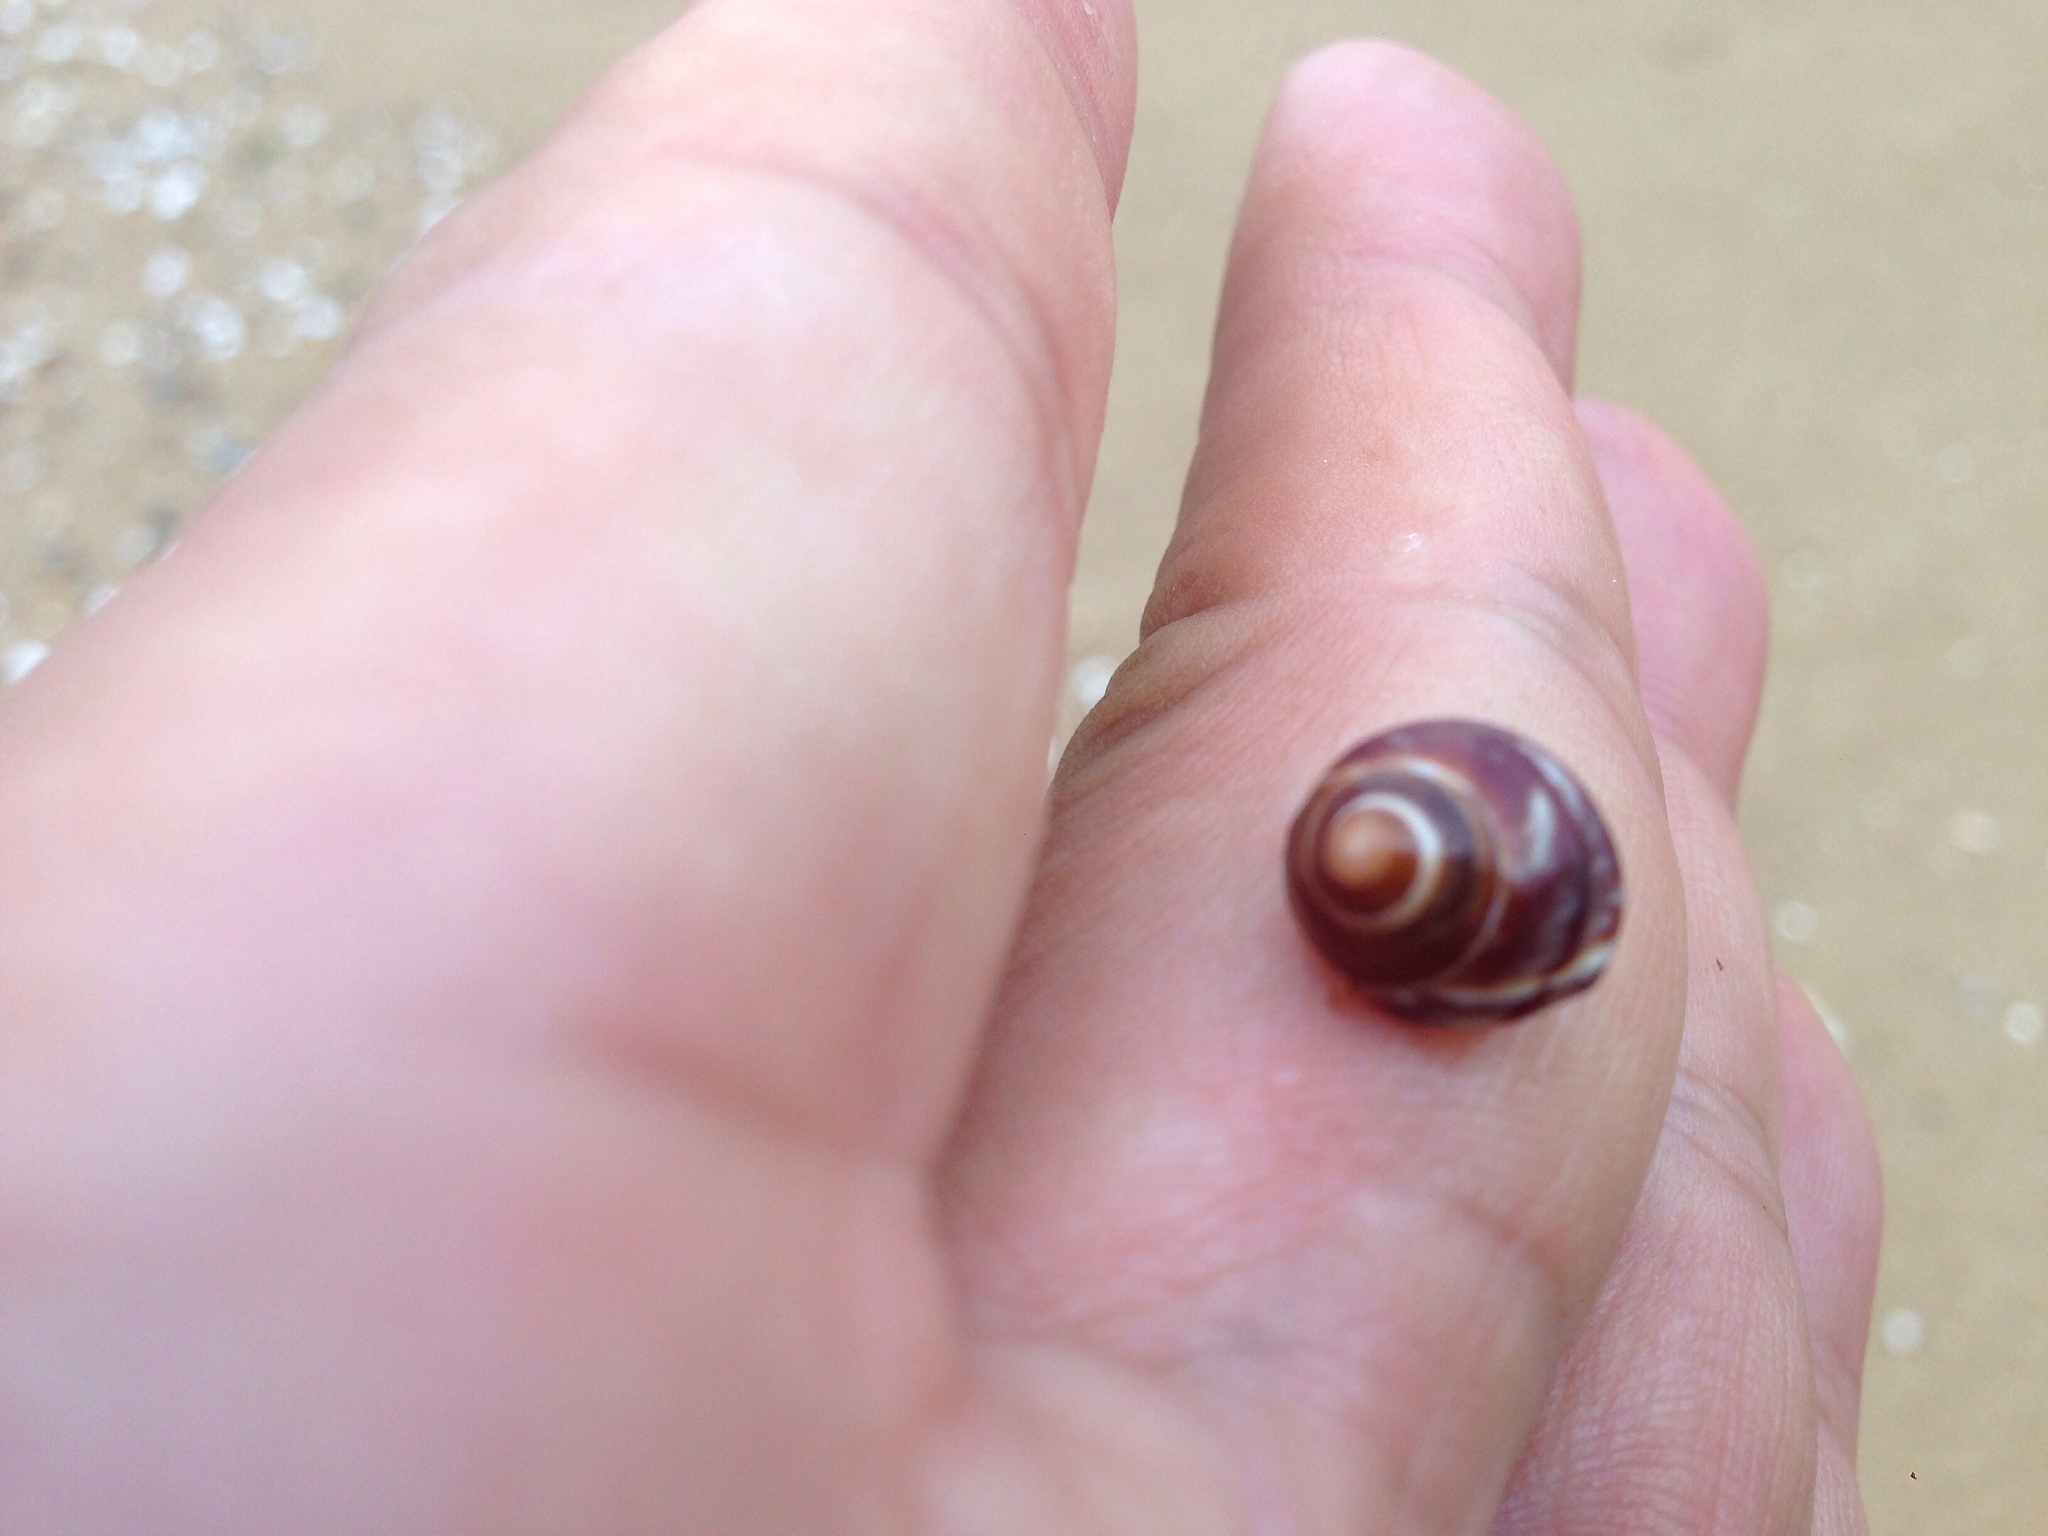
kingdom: Animalia
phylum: Mollusca
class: Gastropoda
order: Littorinimorpha
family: Littorinidae
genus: Littorina
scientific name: Littorina brevicula
